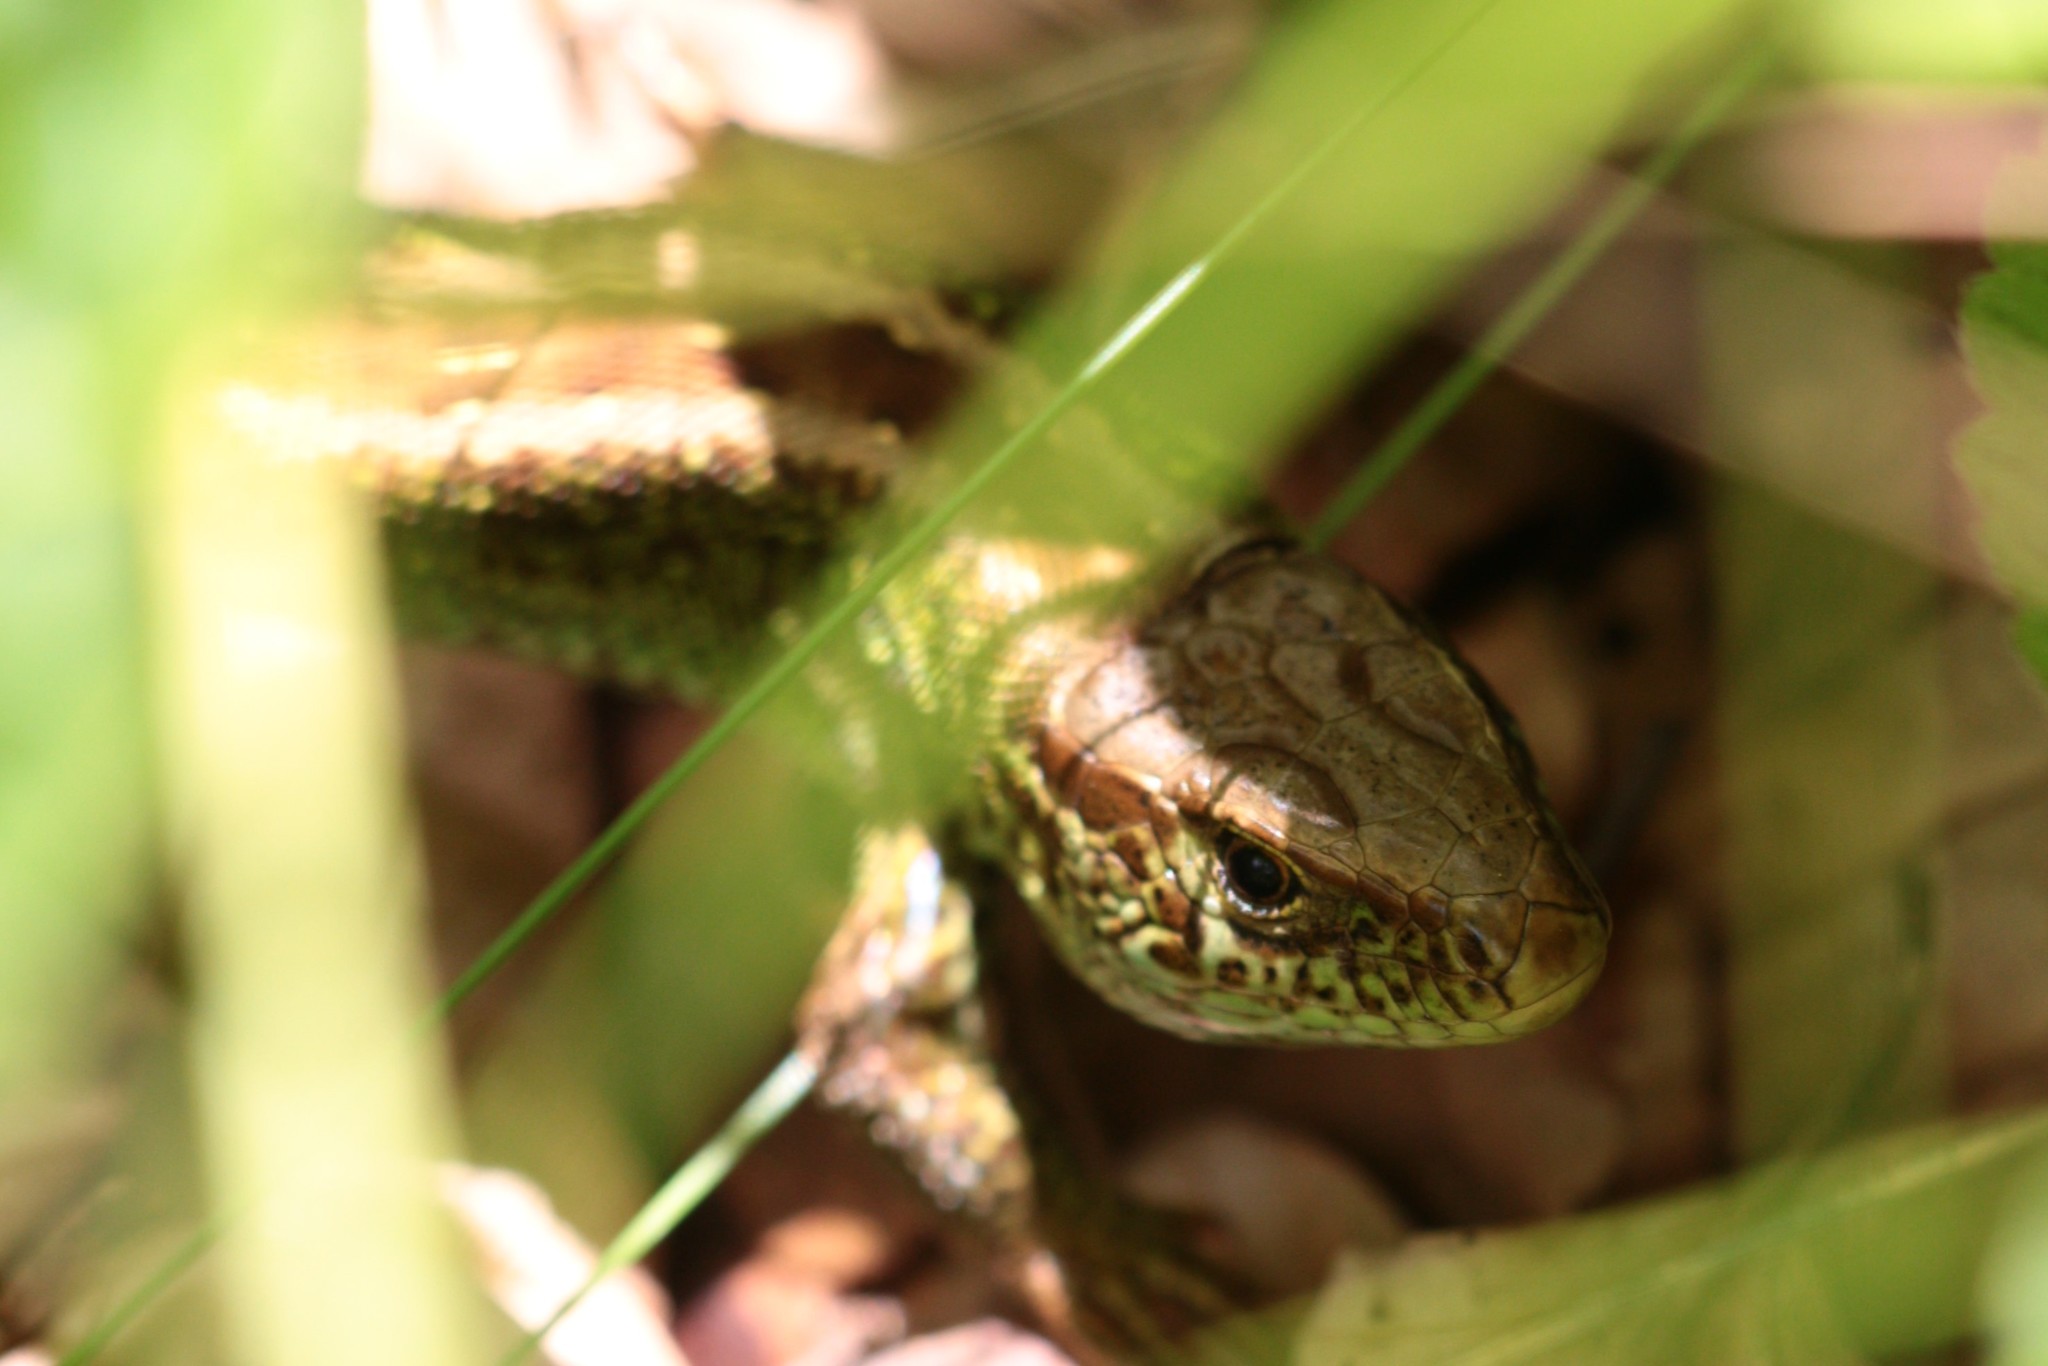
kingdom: Animalia
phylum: Chordata
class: Squamata
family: Lacertidae
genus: Lacerta
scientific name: Lacerta agilis
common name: Sand lizard
